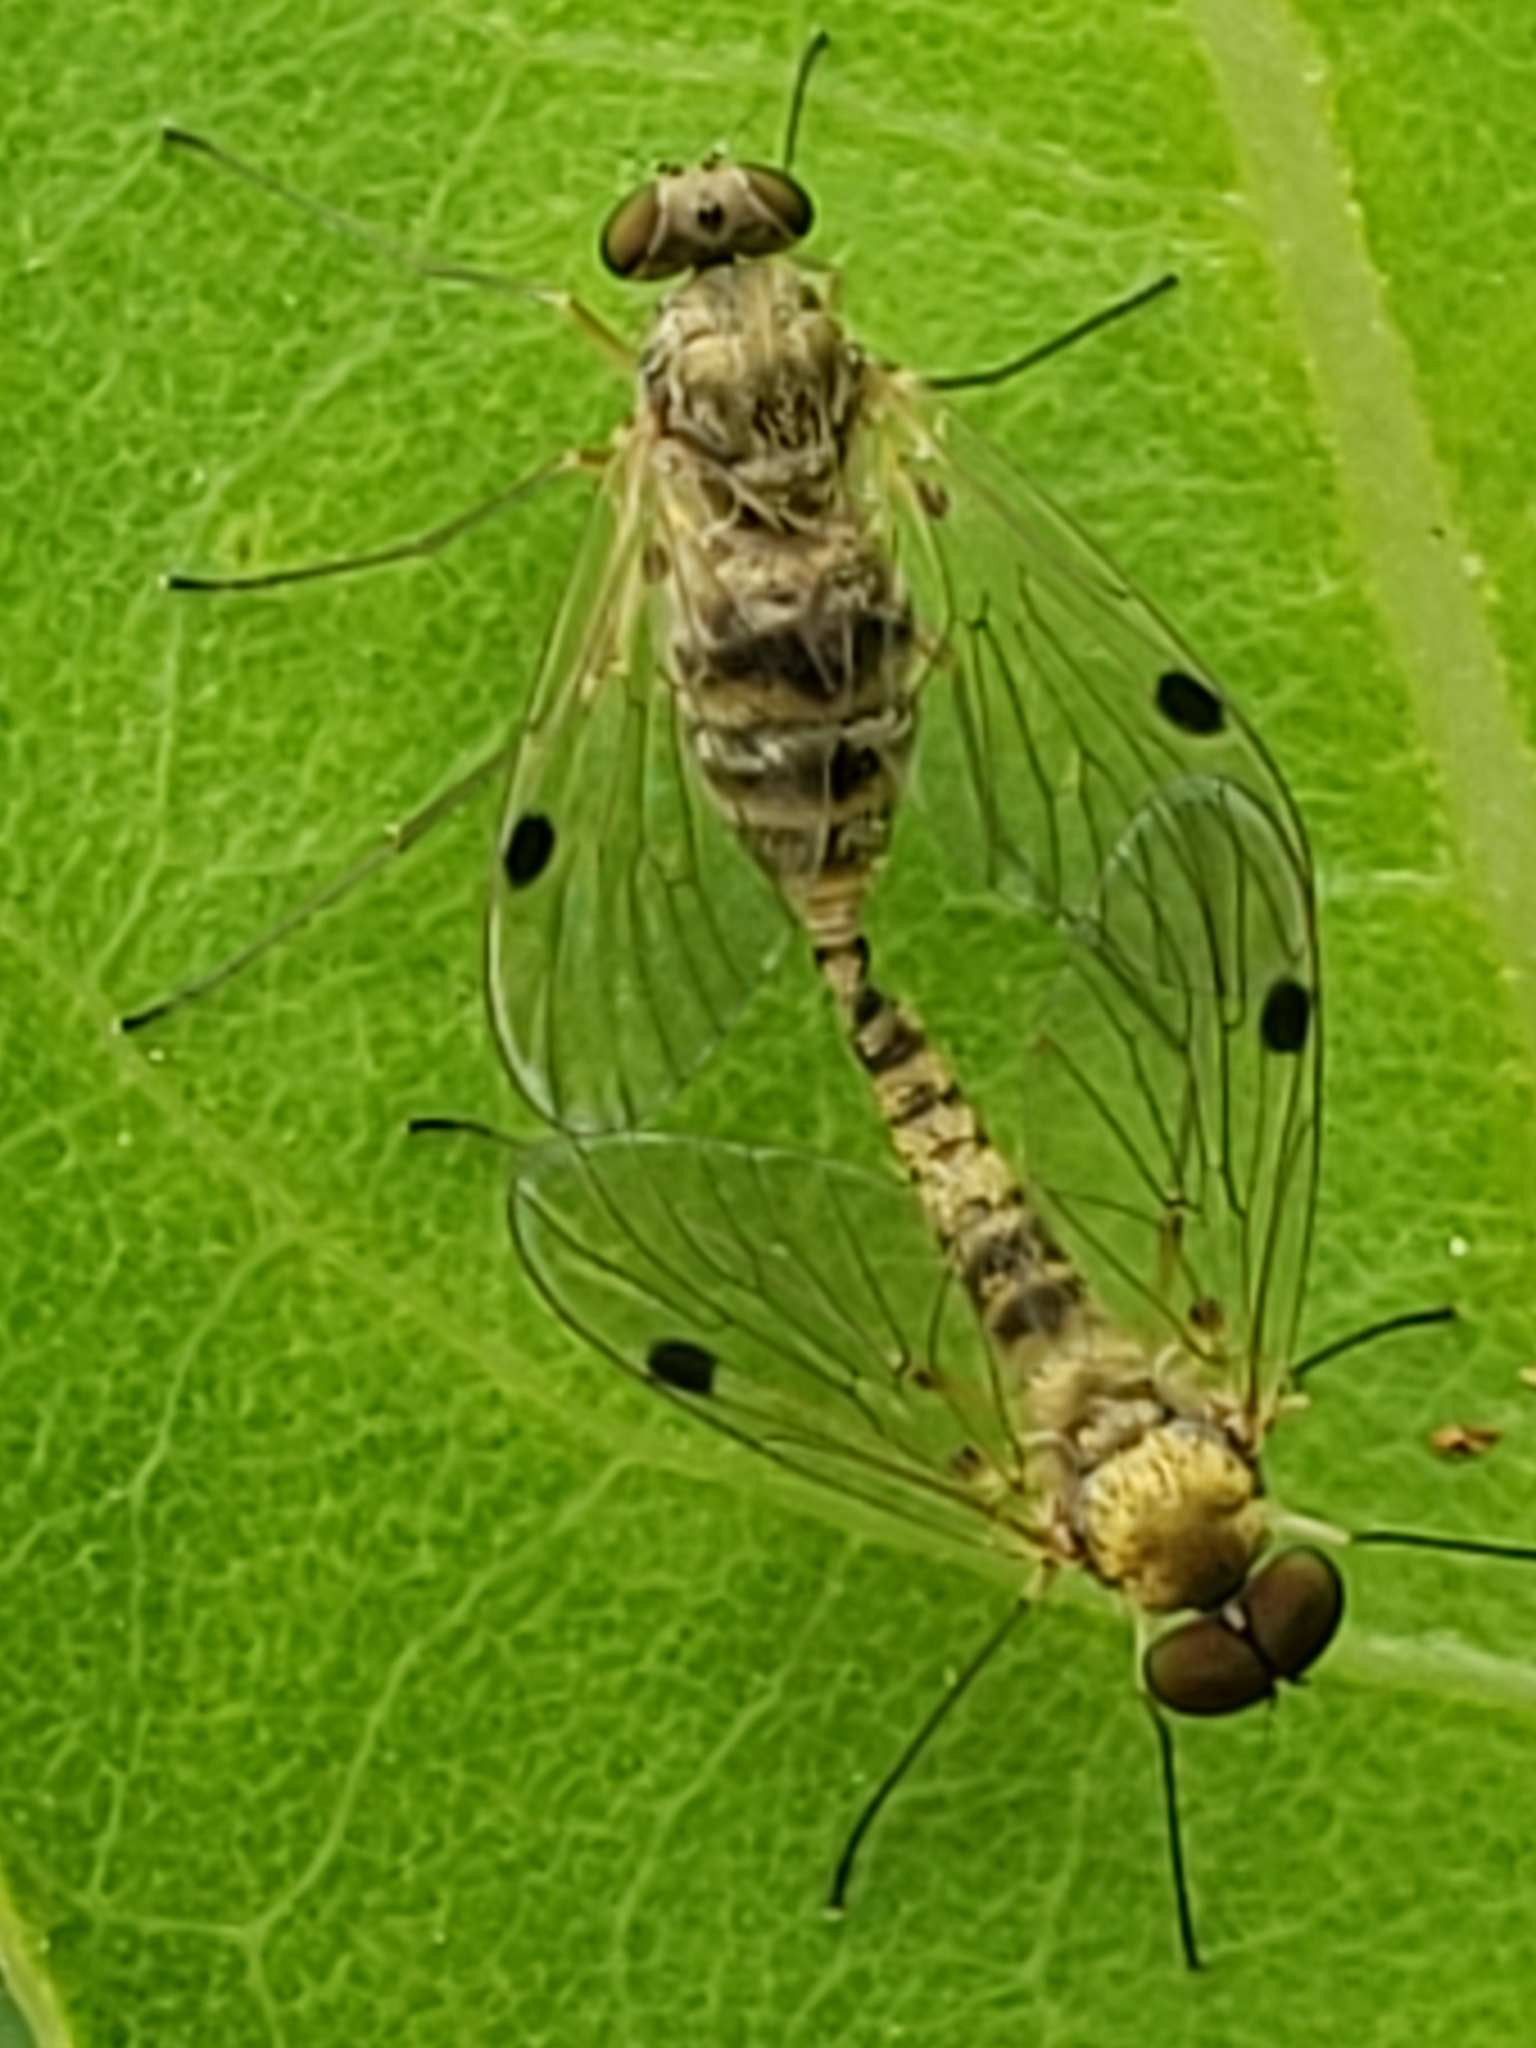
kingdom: Animalia
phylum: Arthropoda
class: Insecta
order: Diptera
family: Rhagionidae
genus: Chrysopilus
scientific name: Chrysopilus modestus
